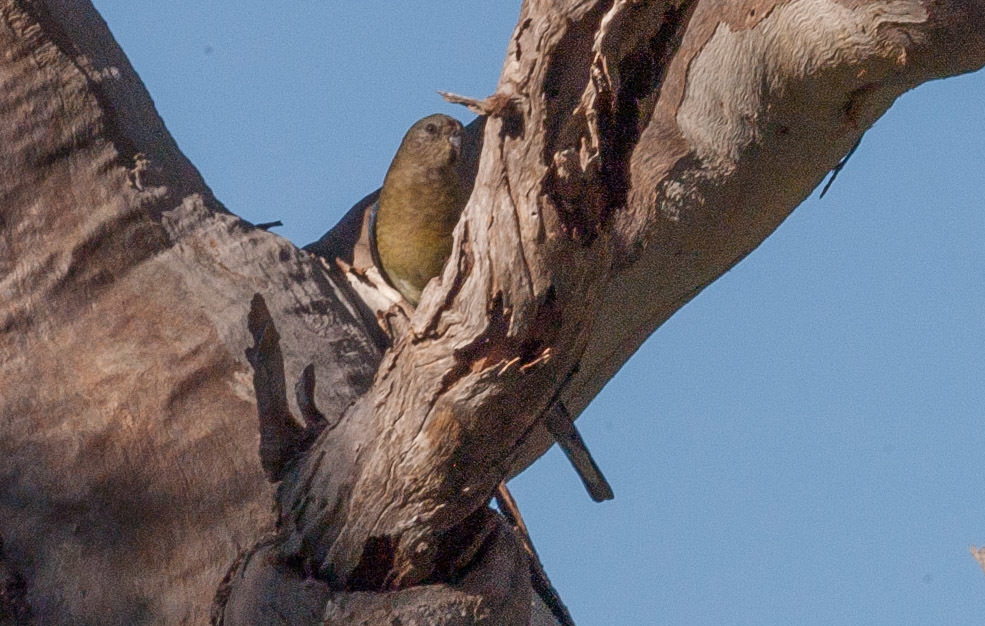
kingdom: Animalia
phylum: Chordata
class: Aves
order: Psittaciformes
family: Psittacidae
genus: Psephotus
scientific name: Psephotus haematonotus
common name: Red-rumped parrot
